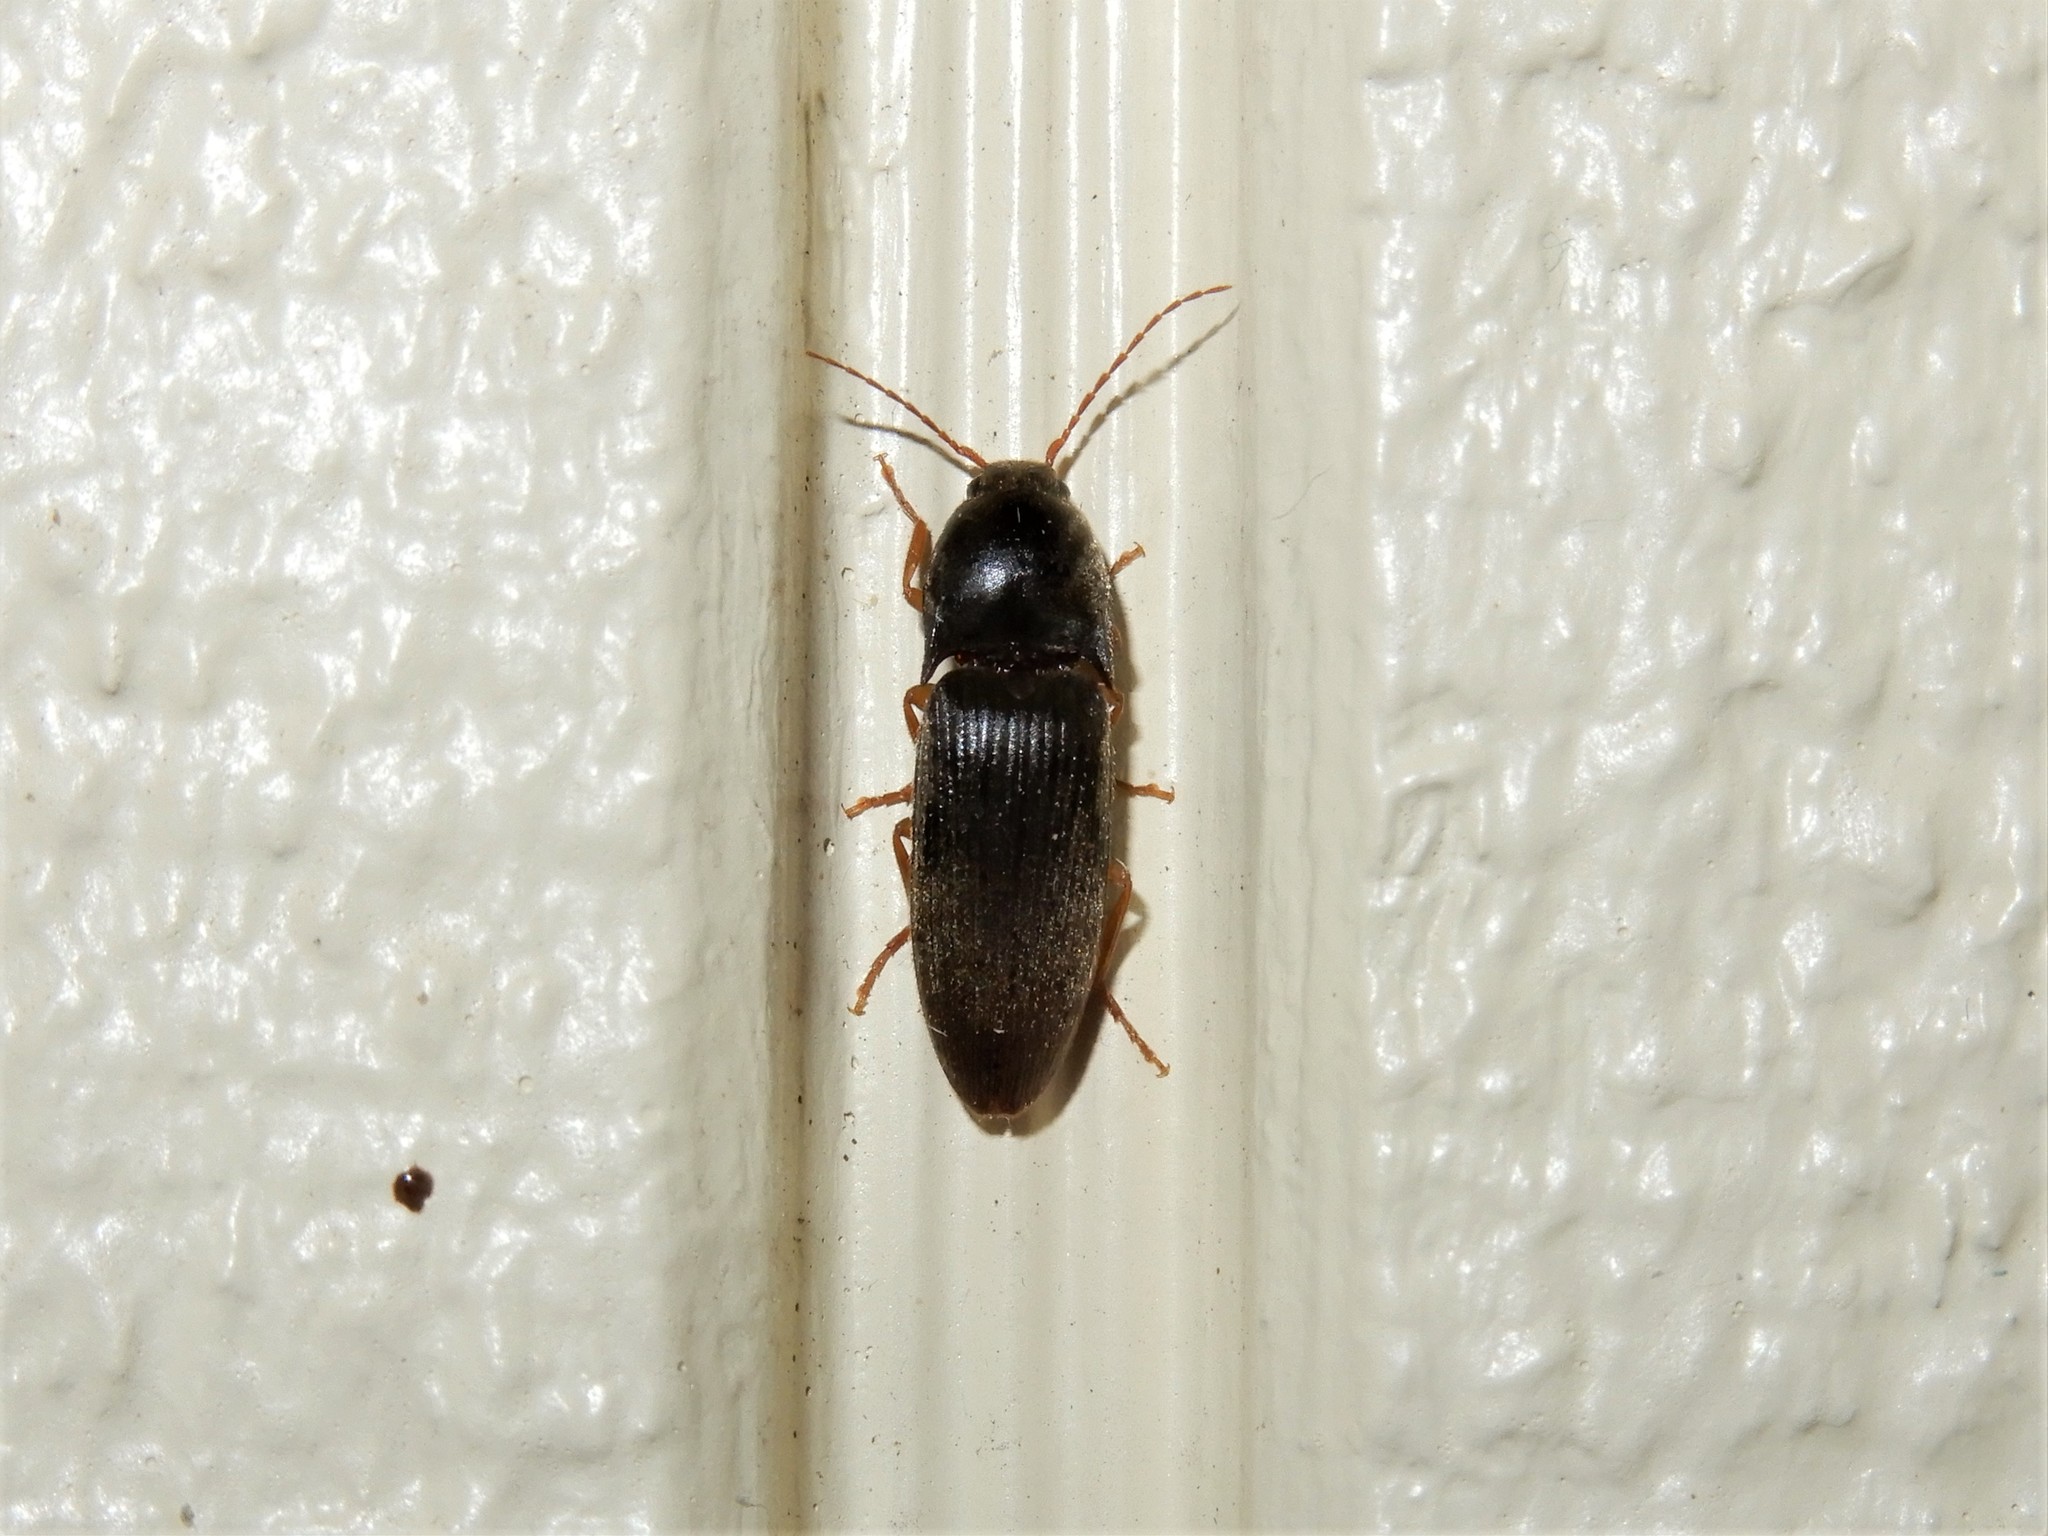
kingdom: Animalia
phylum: Arthropoda
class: Insecta
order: Coleoptera
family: Elateridae
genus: Conoderus
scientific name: Conoderus exsul
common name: Click beetle
